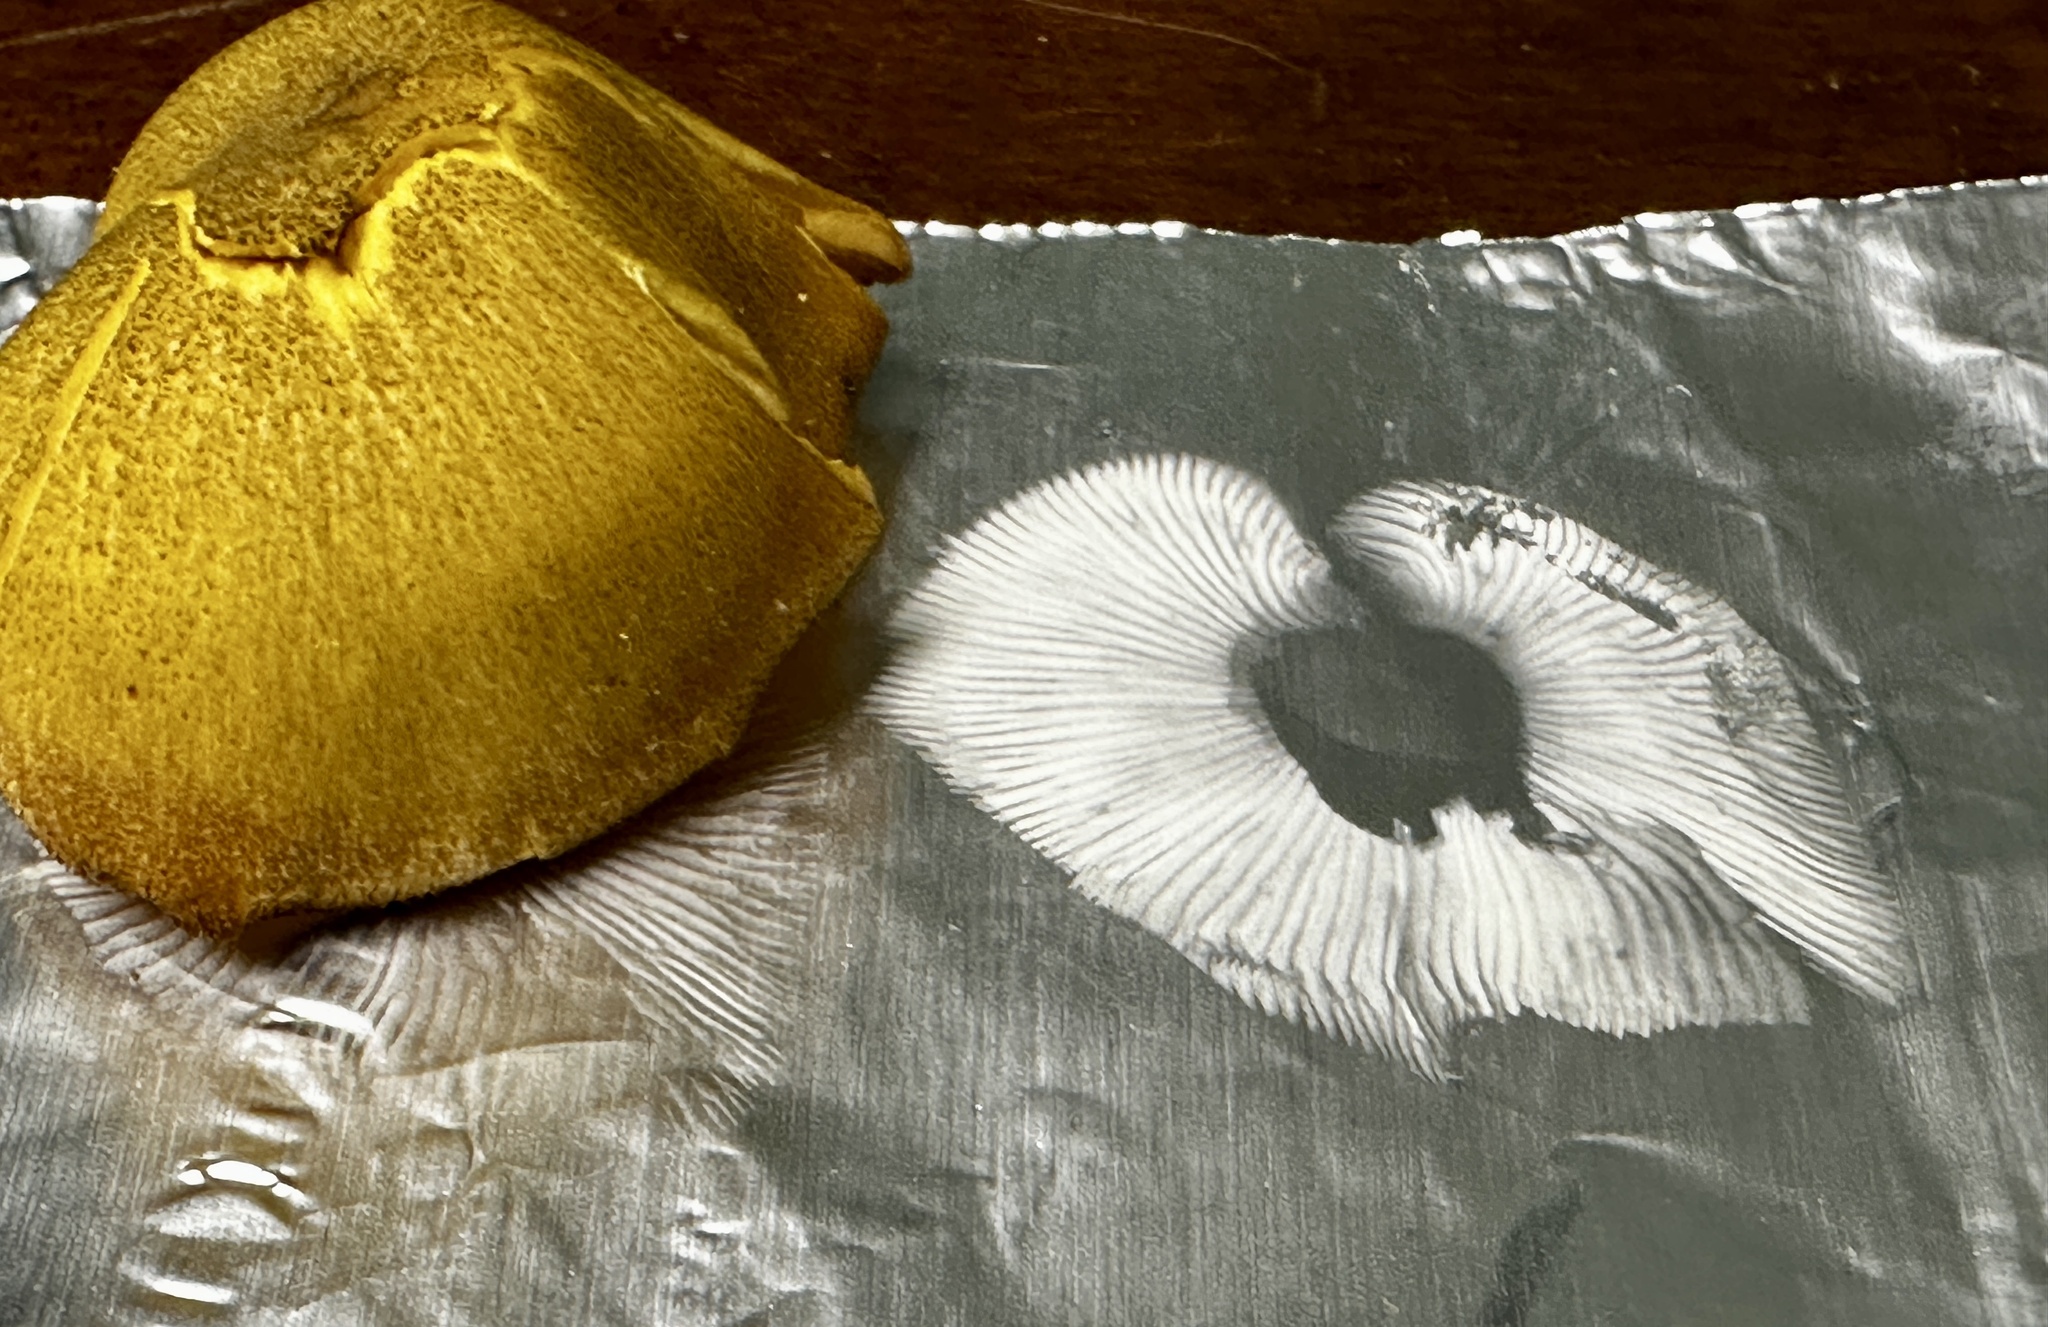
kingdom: Fungi
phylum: Basidiomycota
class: Agaricomycetes
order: Agaricales
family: Tricholomataceae
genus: Tricholomopsis
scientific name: Tricholomopsis decora
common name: Prunes and custard
